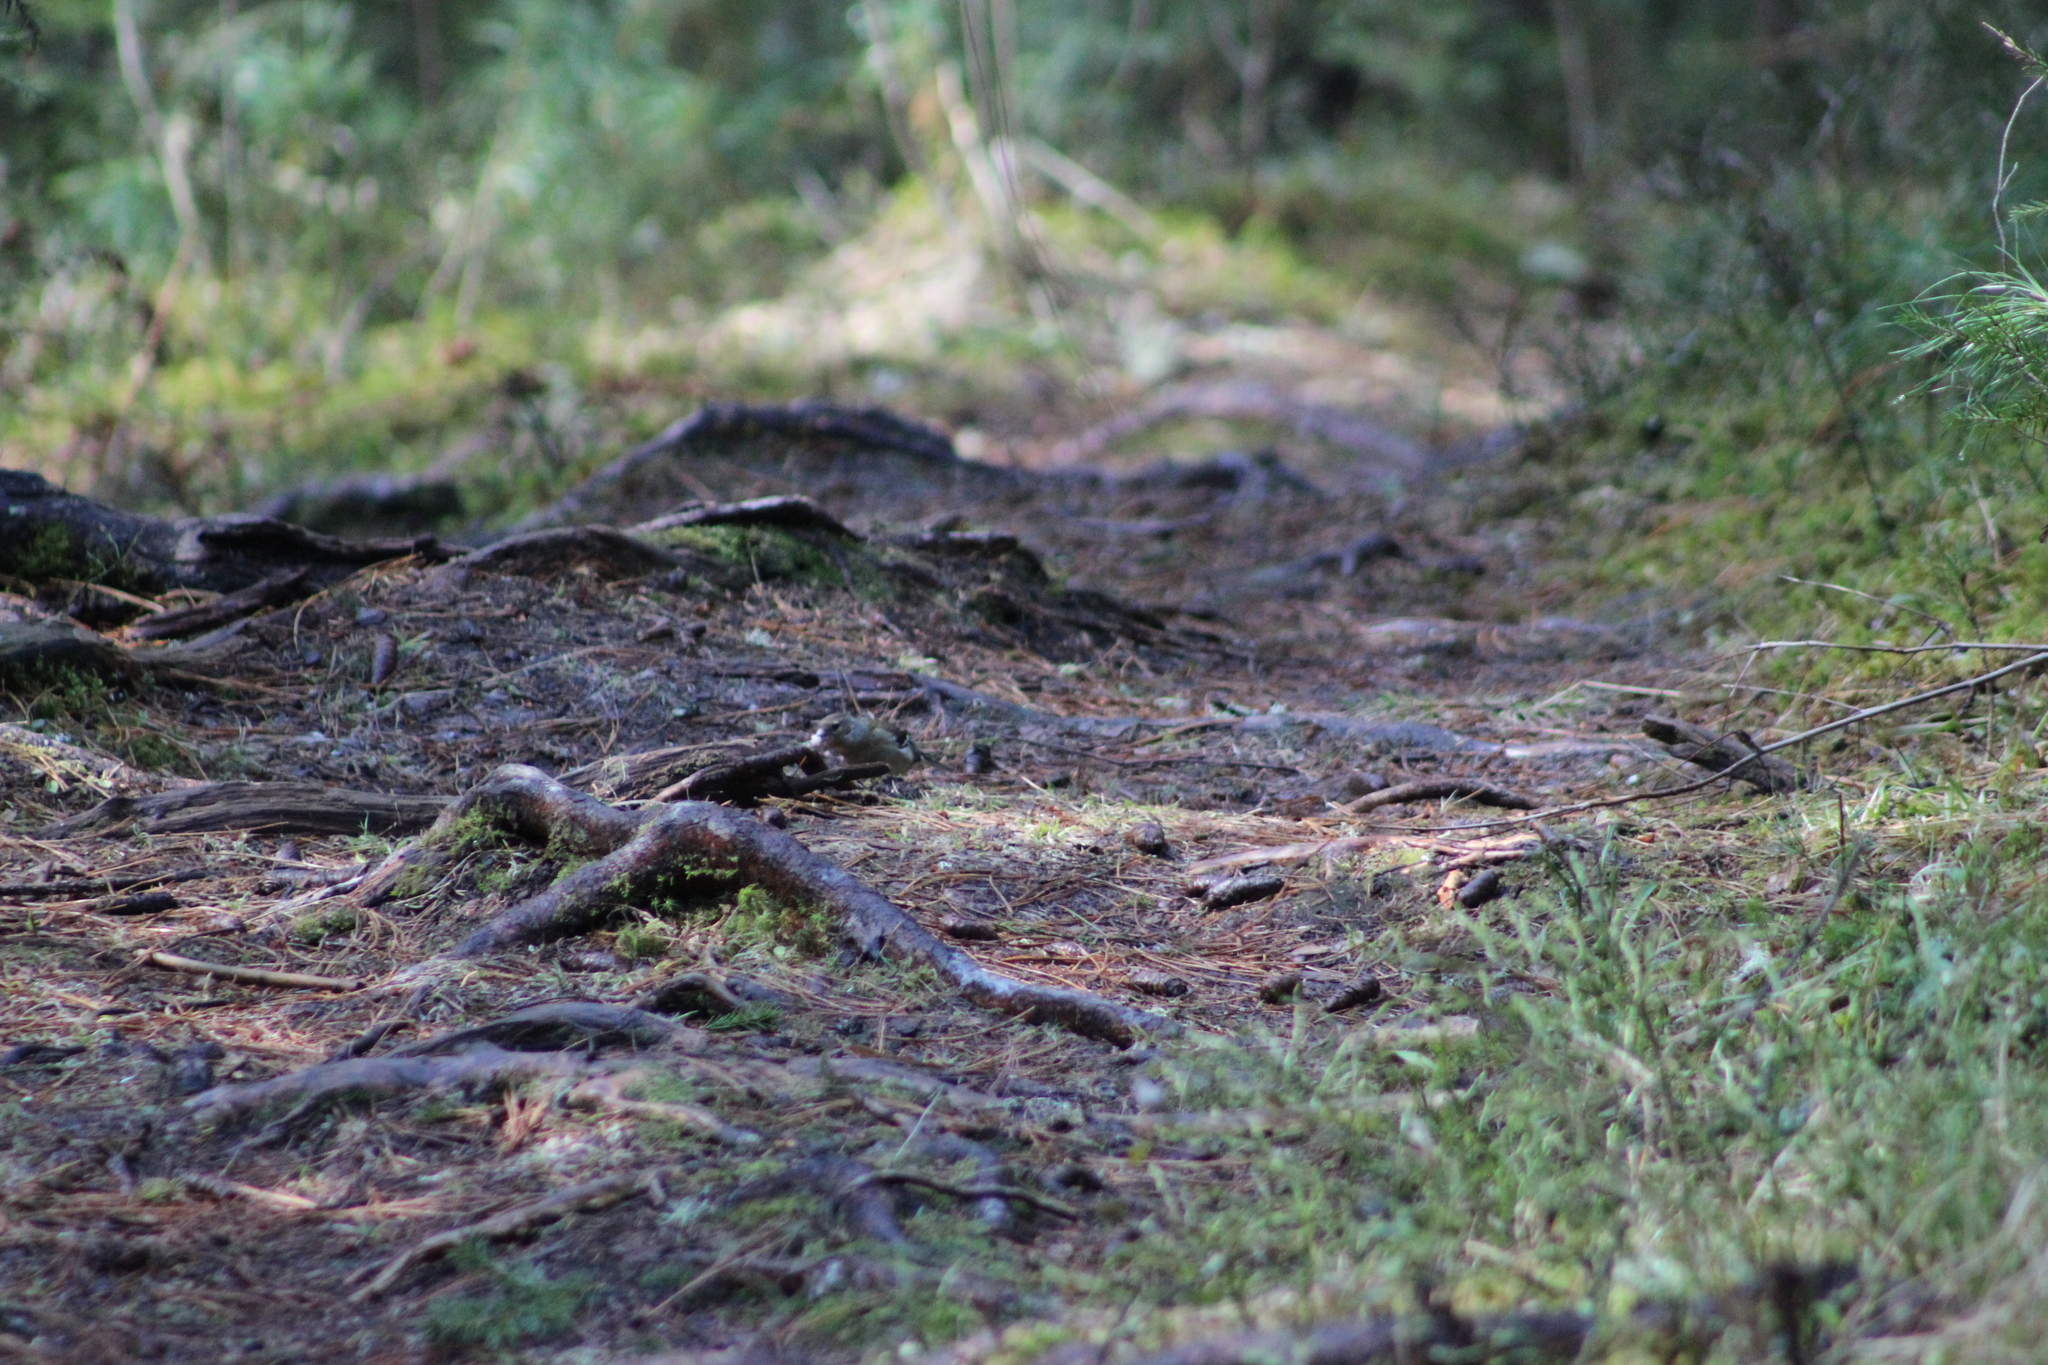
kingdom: Animalia
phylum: Chordata
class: Aves
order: Passeriformes
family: Fringillidae
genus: Fringilla
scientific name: Fringilla coelebs
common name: Common chaffinch
